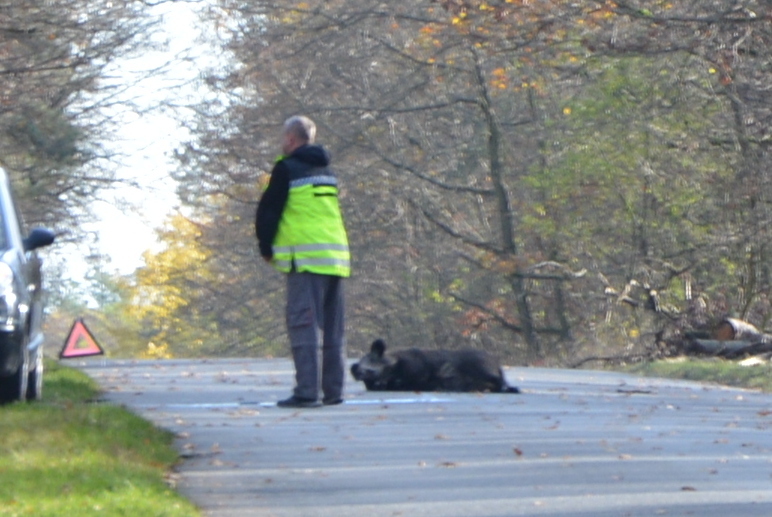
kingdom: Animalia
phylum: Chordata
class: Mammalia
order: Artiodactyla
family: Suidae
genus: Sus
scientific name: Sus scrofa
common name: Wild boar
